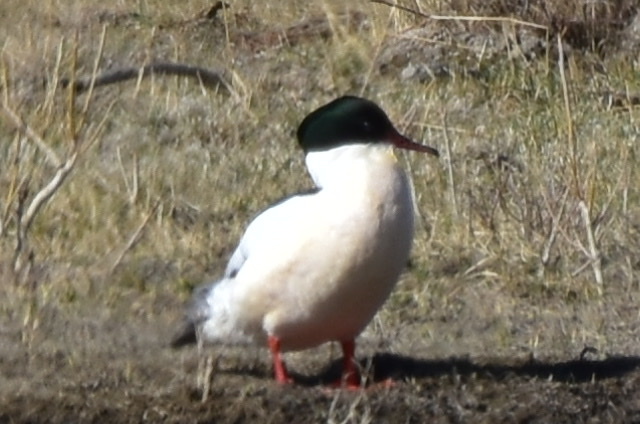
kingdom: Animalia
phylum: Chordata
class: Aves
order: Anseriformes
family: Anatidae
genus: Mergus
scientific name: Mergus merganser
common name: Common merganser
